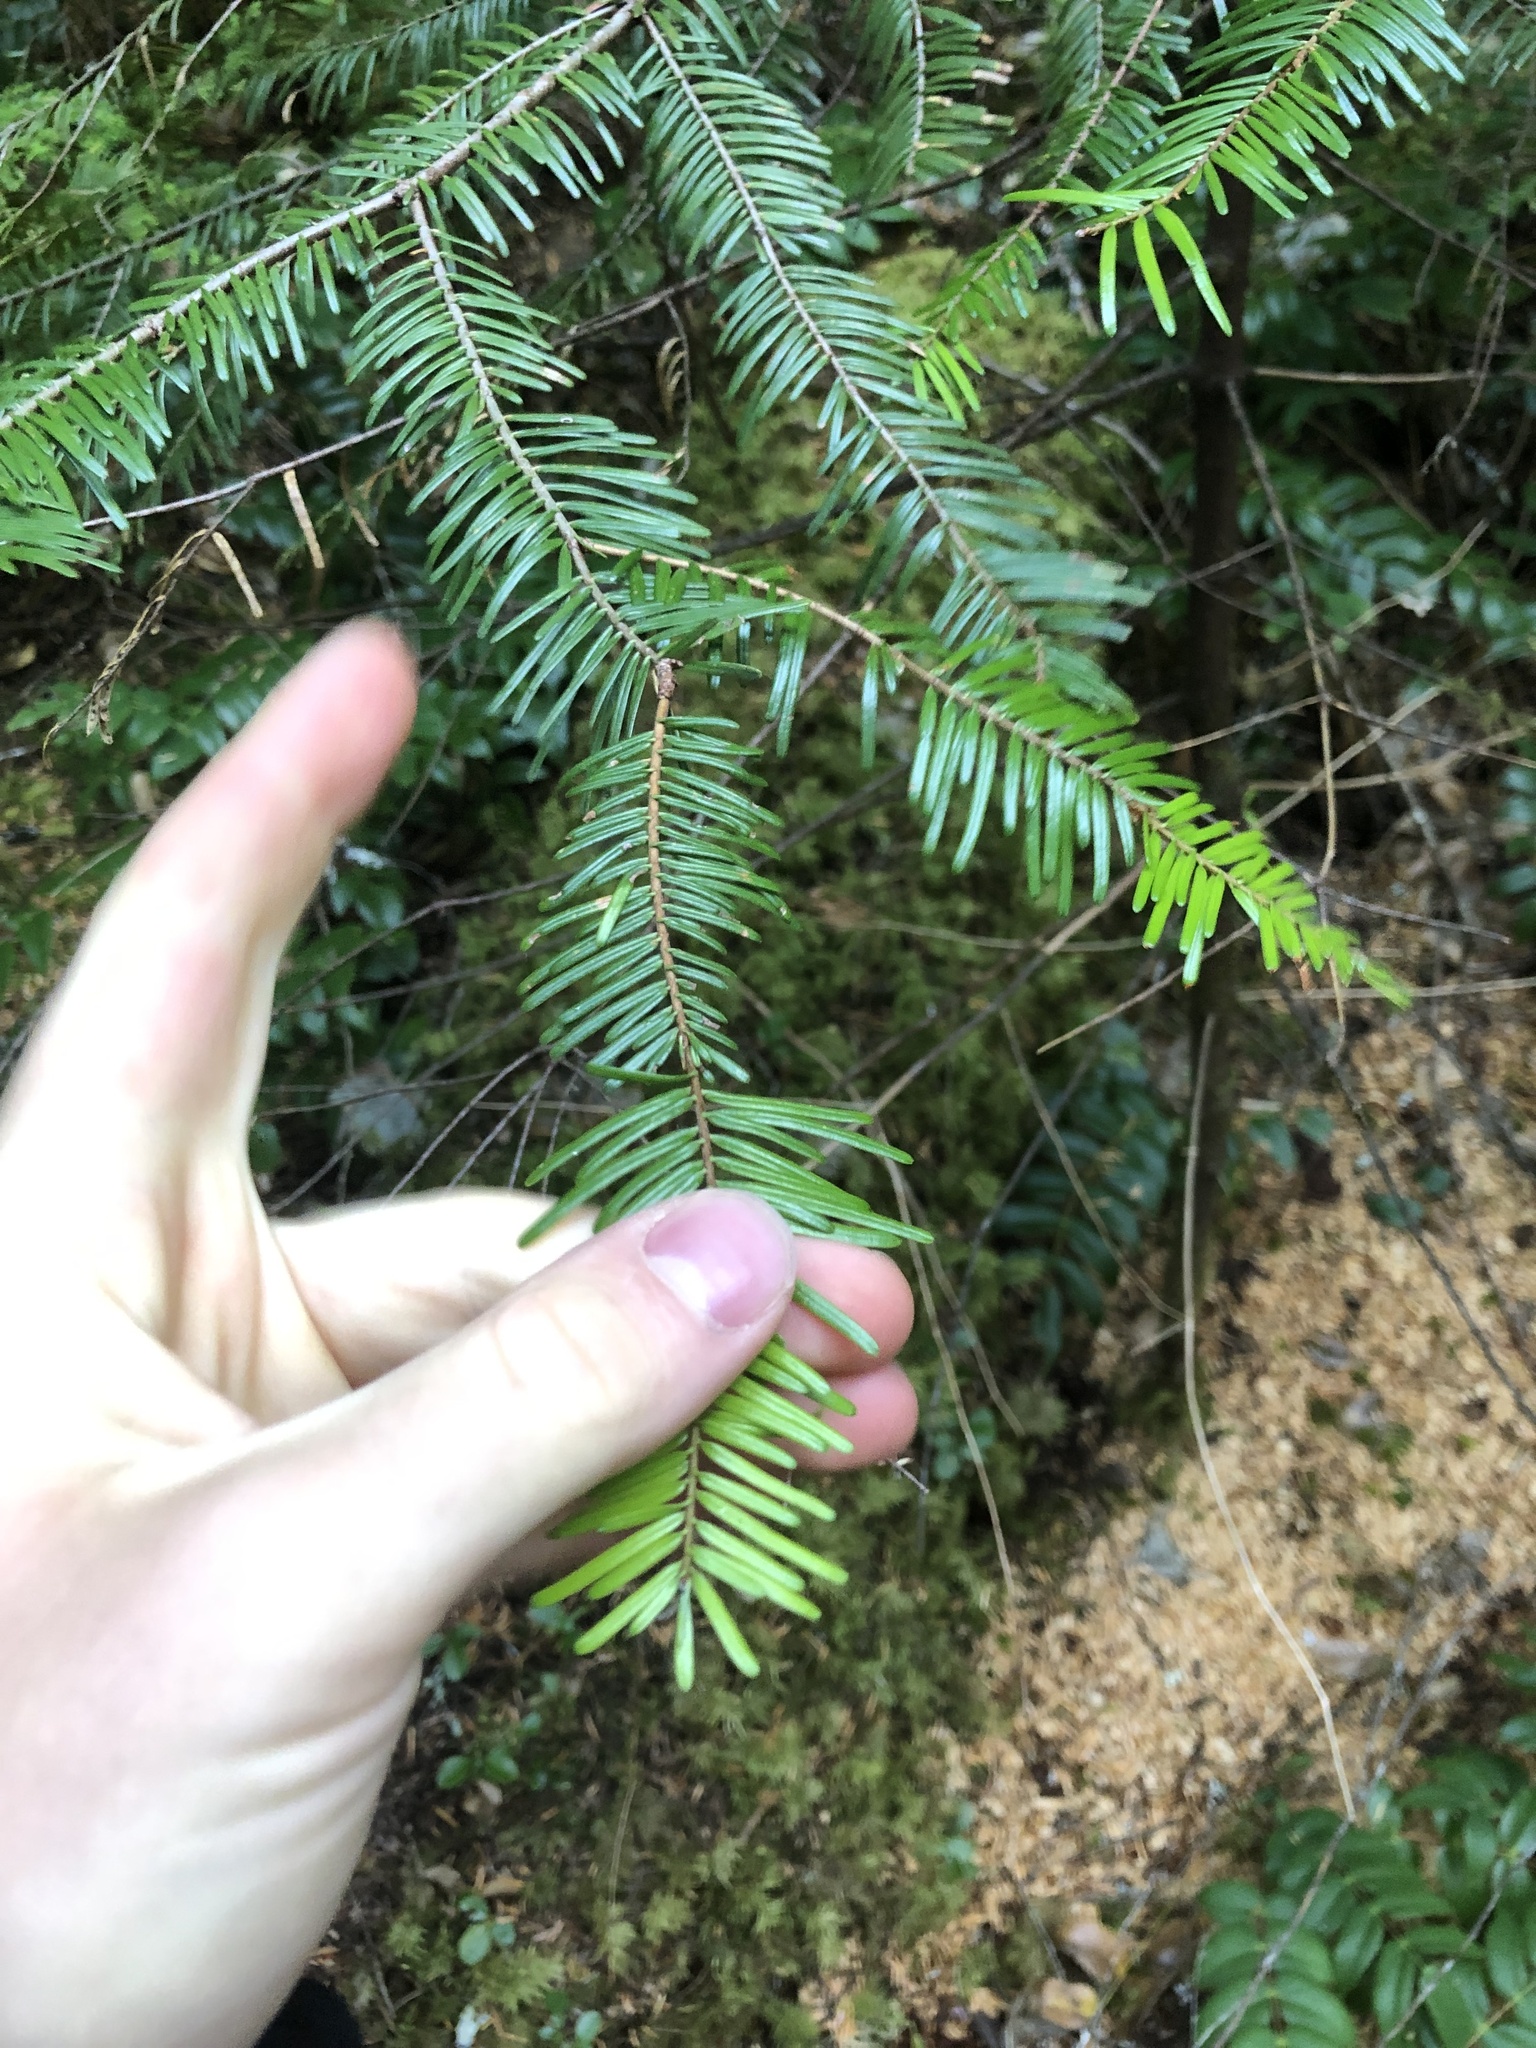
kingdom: Plantae
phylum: Tracheophyta
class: Pinopsida
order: Pinales
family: Pinaceae
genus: Abies
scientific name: Abies grandis
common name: Giant fir
